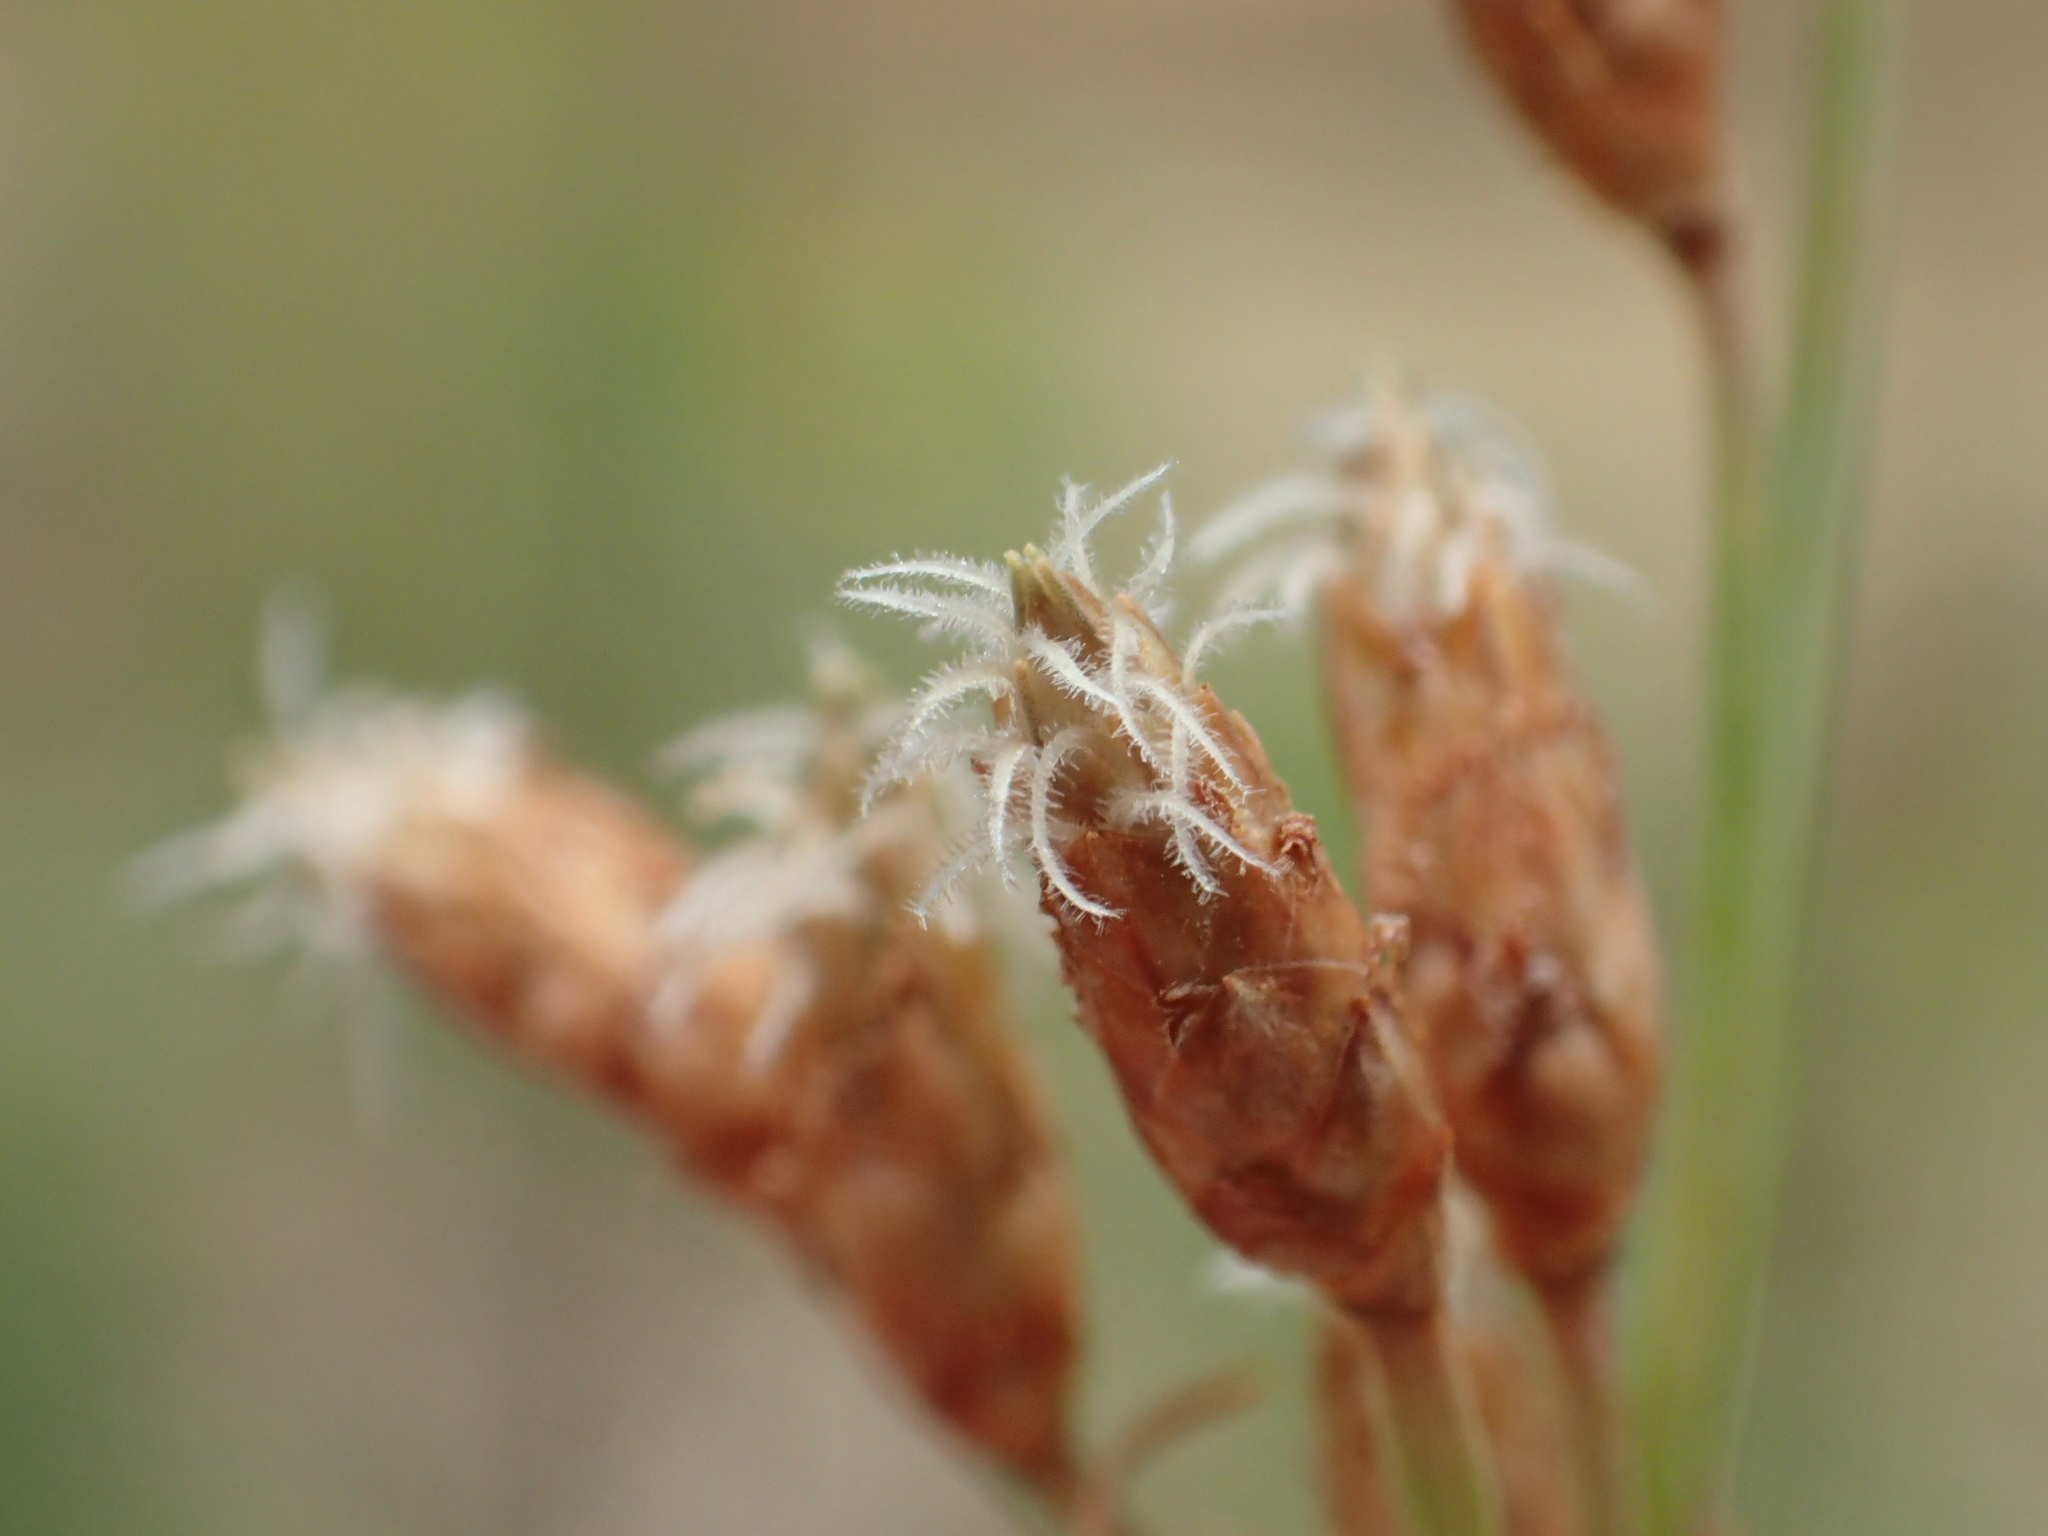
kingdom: Plantae
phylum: Tracheophyta
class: Liliopsida
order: Poales
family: Cyperaceae
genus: Fimbristylis
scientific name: Fimbristylis sieboldii
